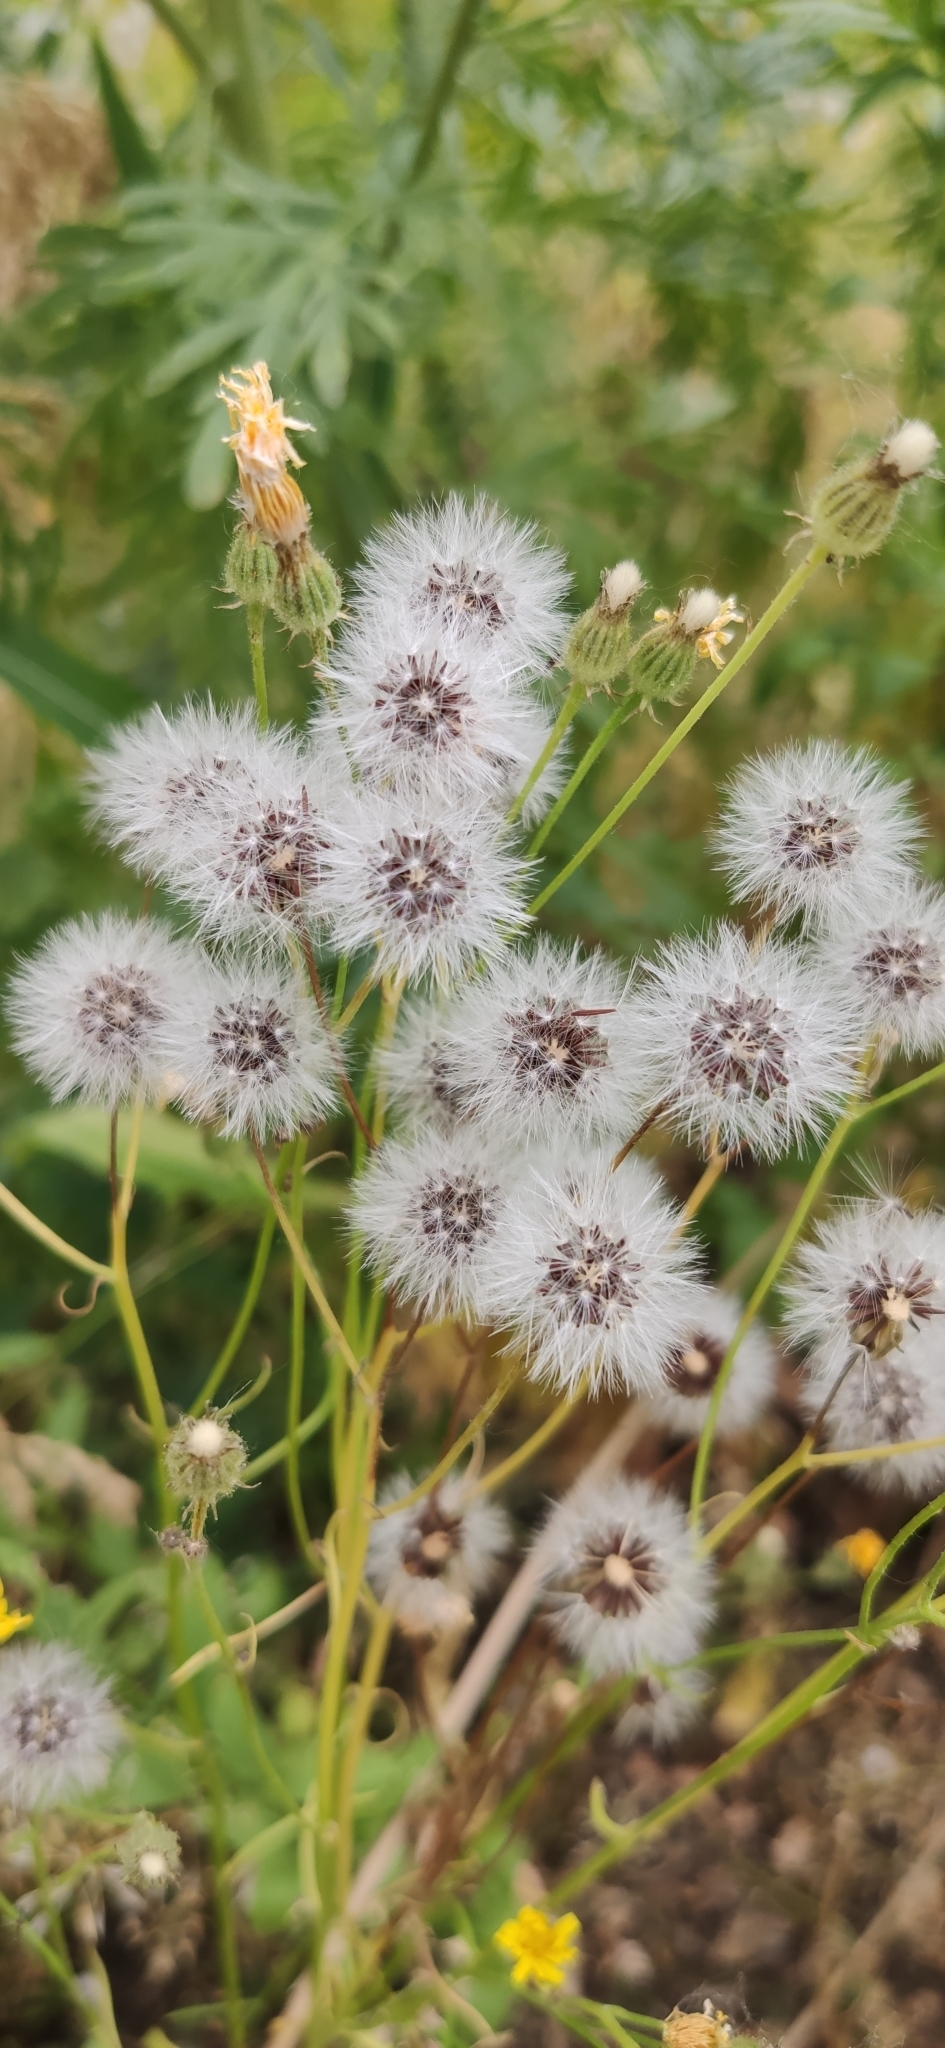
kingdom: Plantae
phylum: Tracheophyta
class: Magnoliopsida
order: Asterales
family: Asteraceae
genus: Crepis
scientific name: Crepis tectorum
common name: Narrow-leaved hawk's-beard
